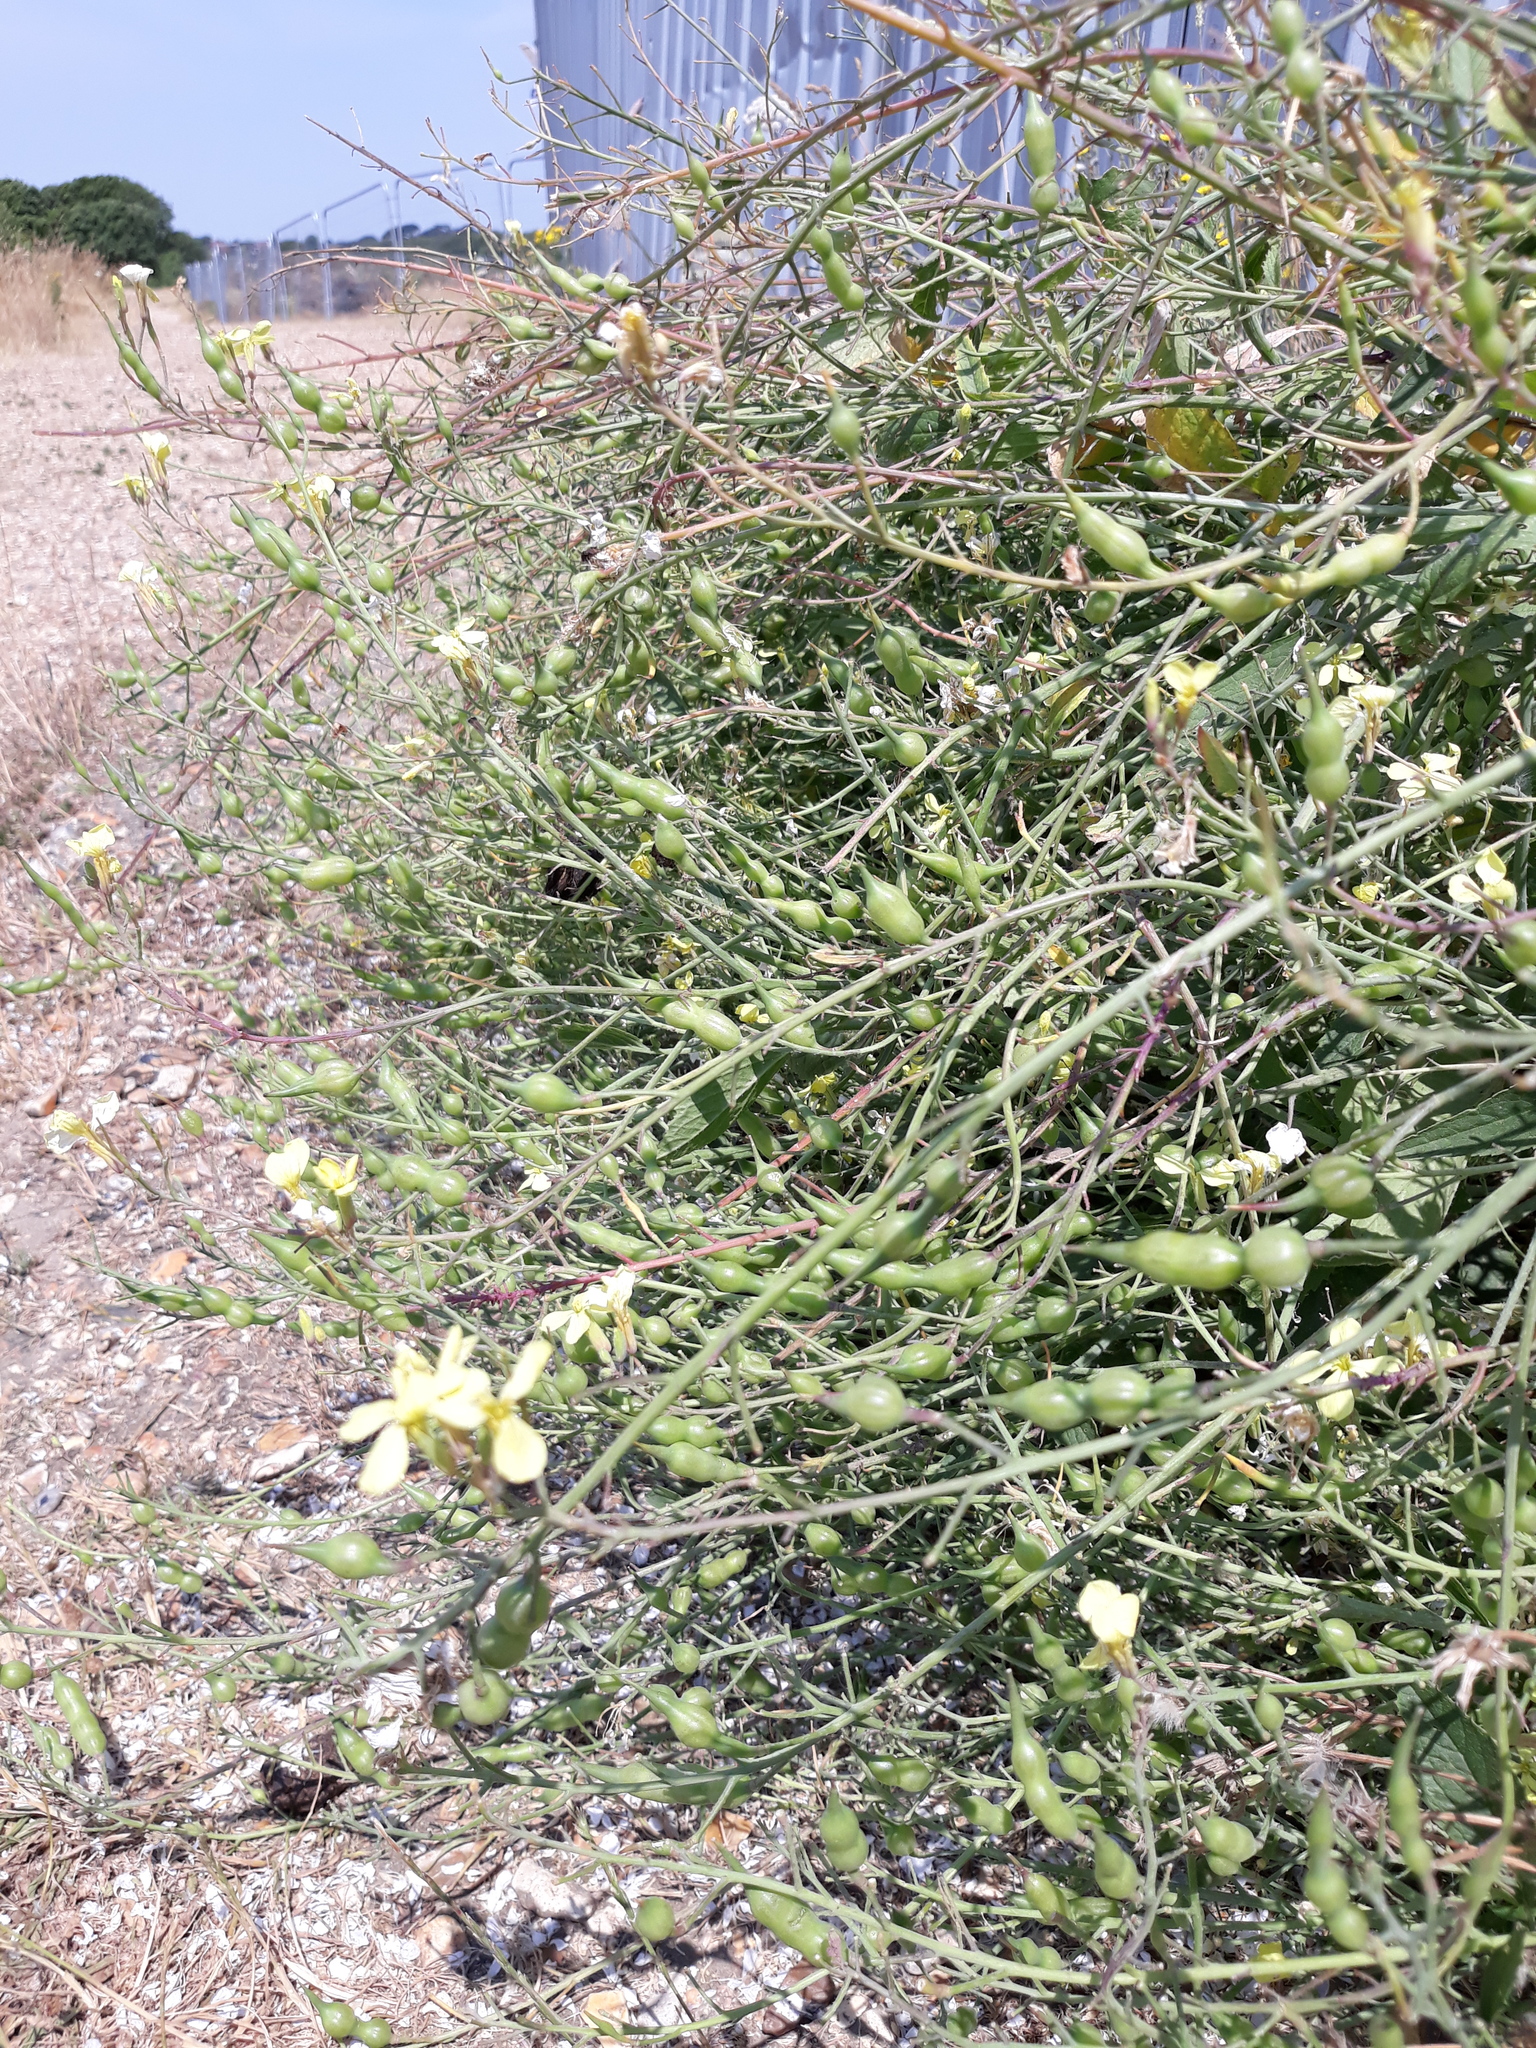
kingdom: Plantae
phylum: Tracheophyta
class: Magnoliopsida
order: Brassicales
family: Brassicaceae
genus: Raphanus
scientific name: Raphanus raphanistrum
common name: Wild radish
